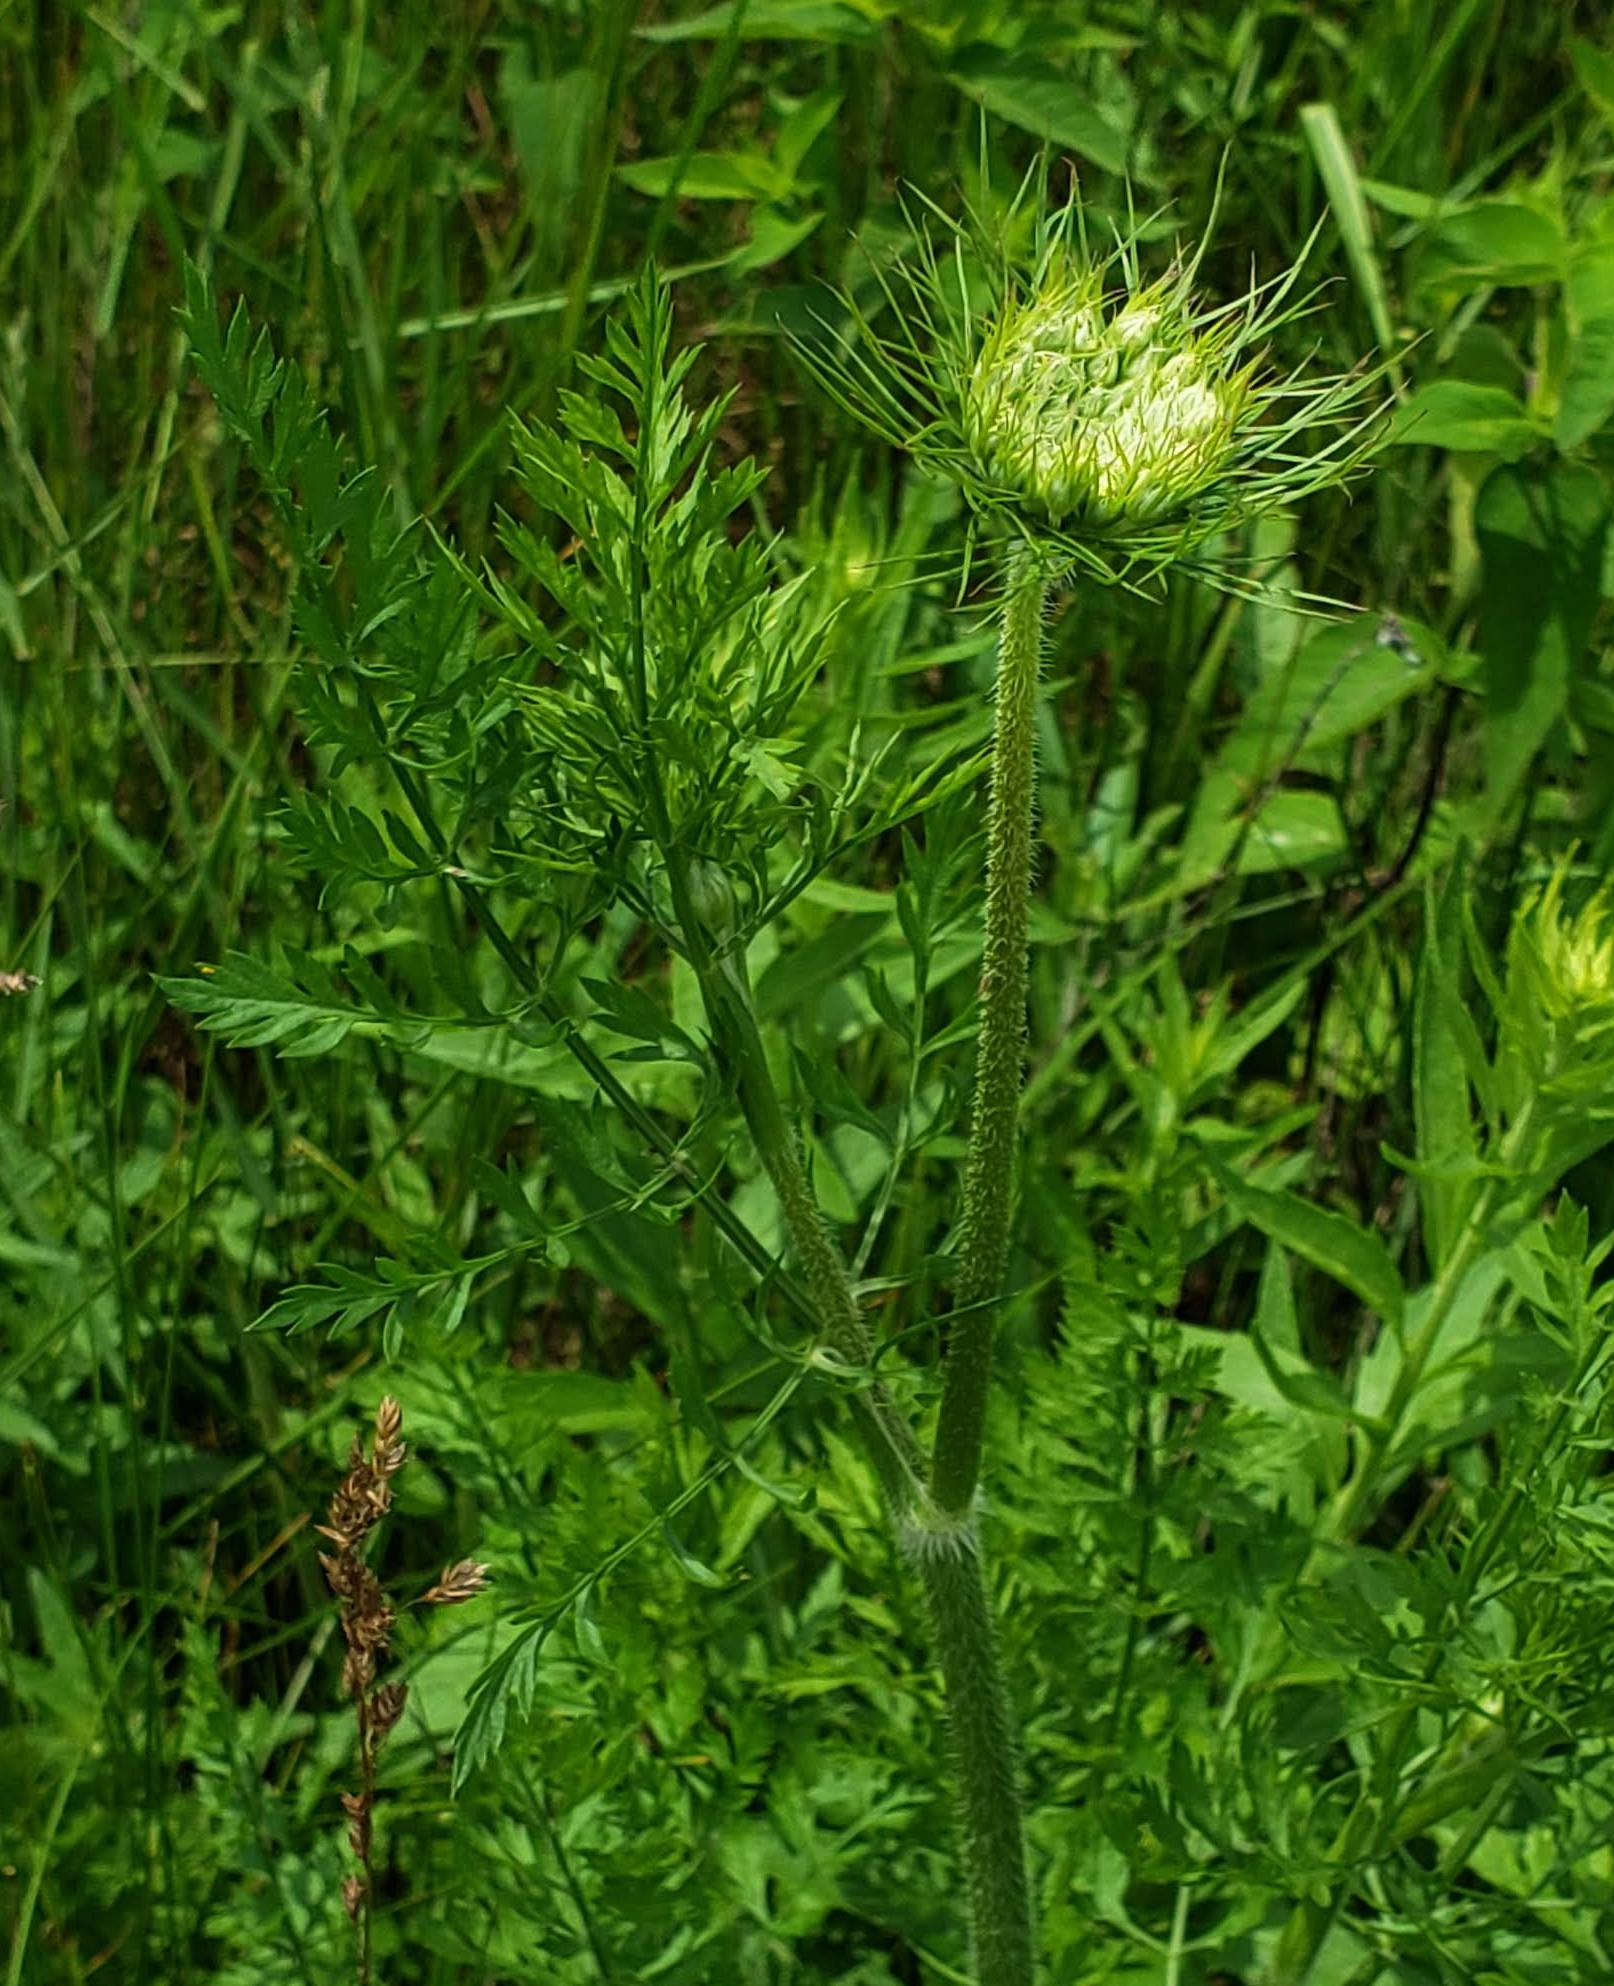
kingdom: Plantae
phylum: Tracheophyta
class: Magnoliopsida
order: Apiales
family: Apiaceae
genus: Daucus
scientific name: Daucus carota
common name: Wild carrot
